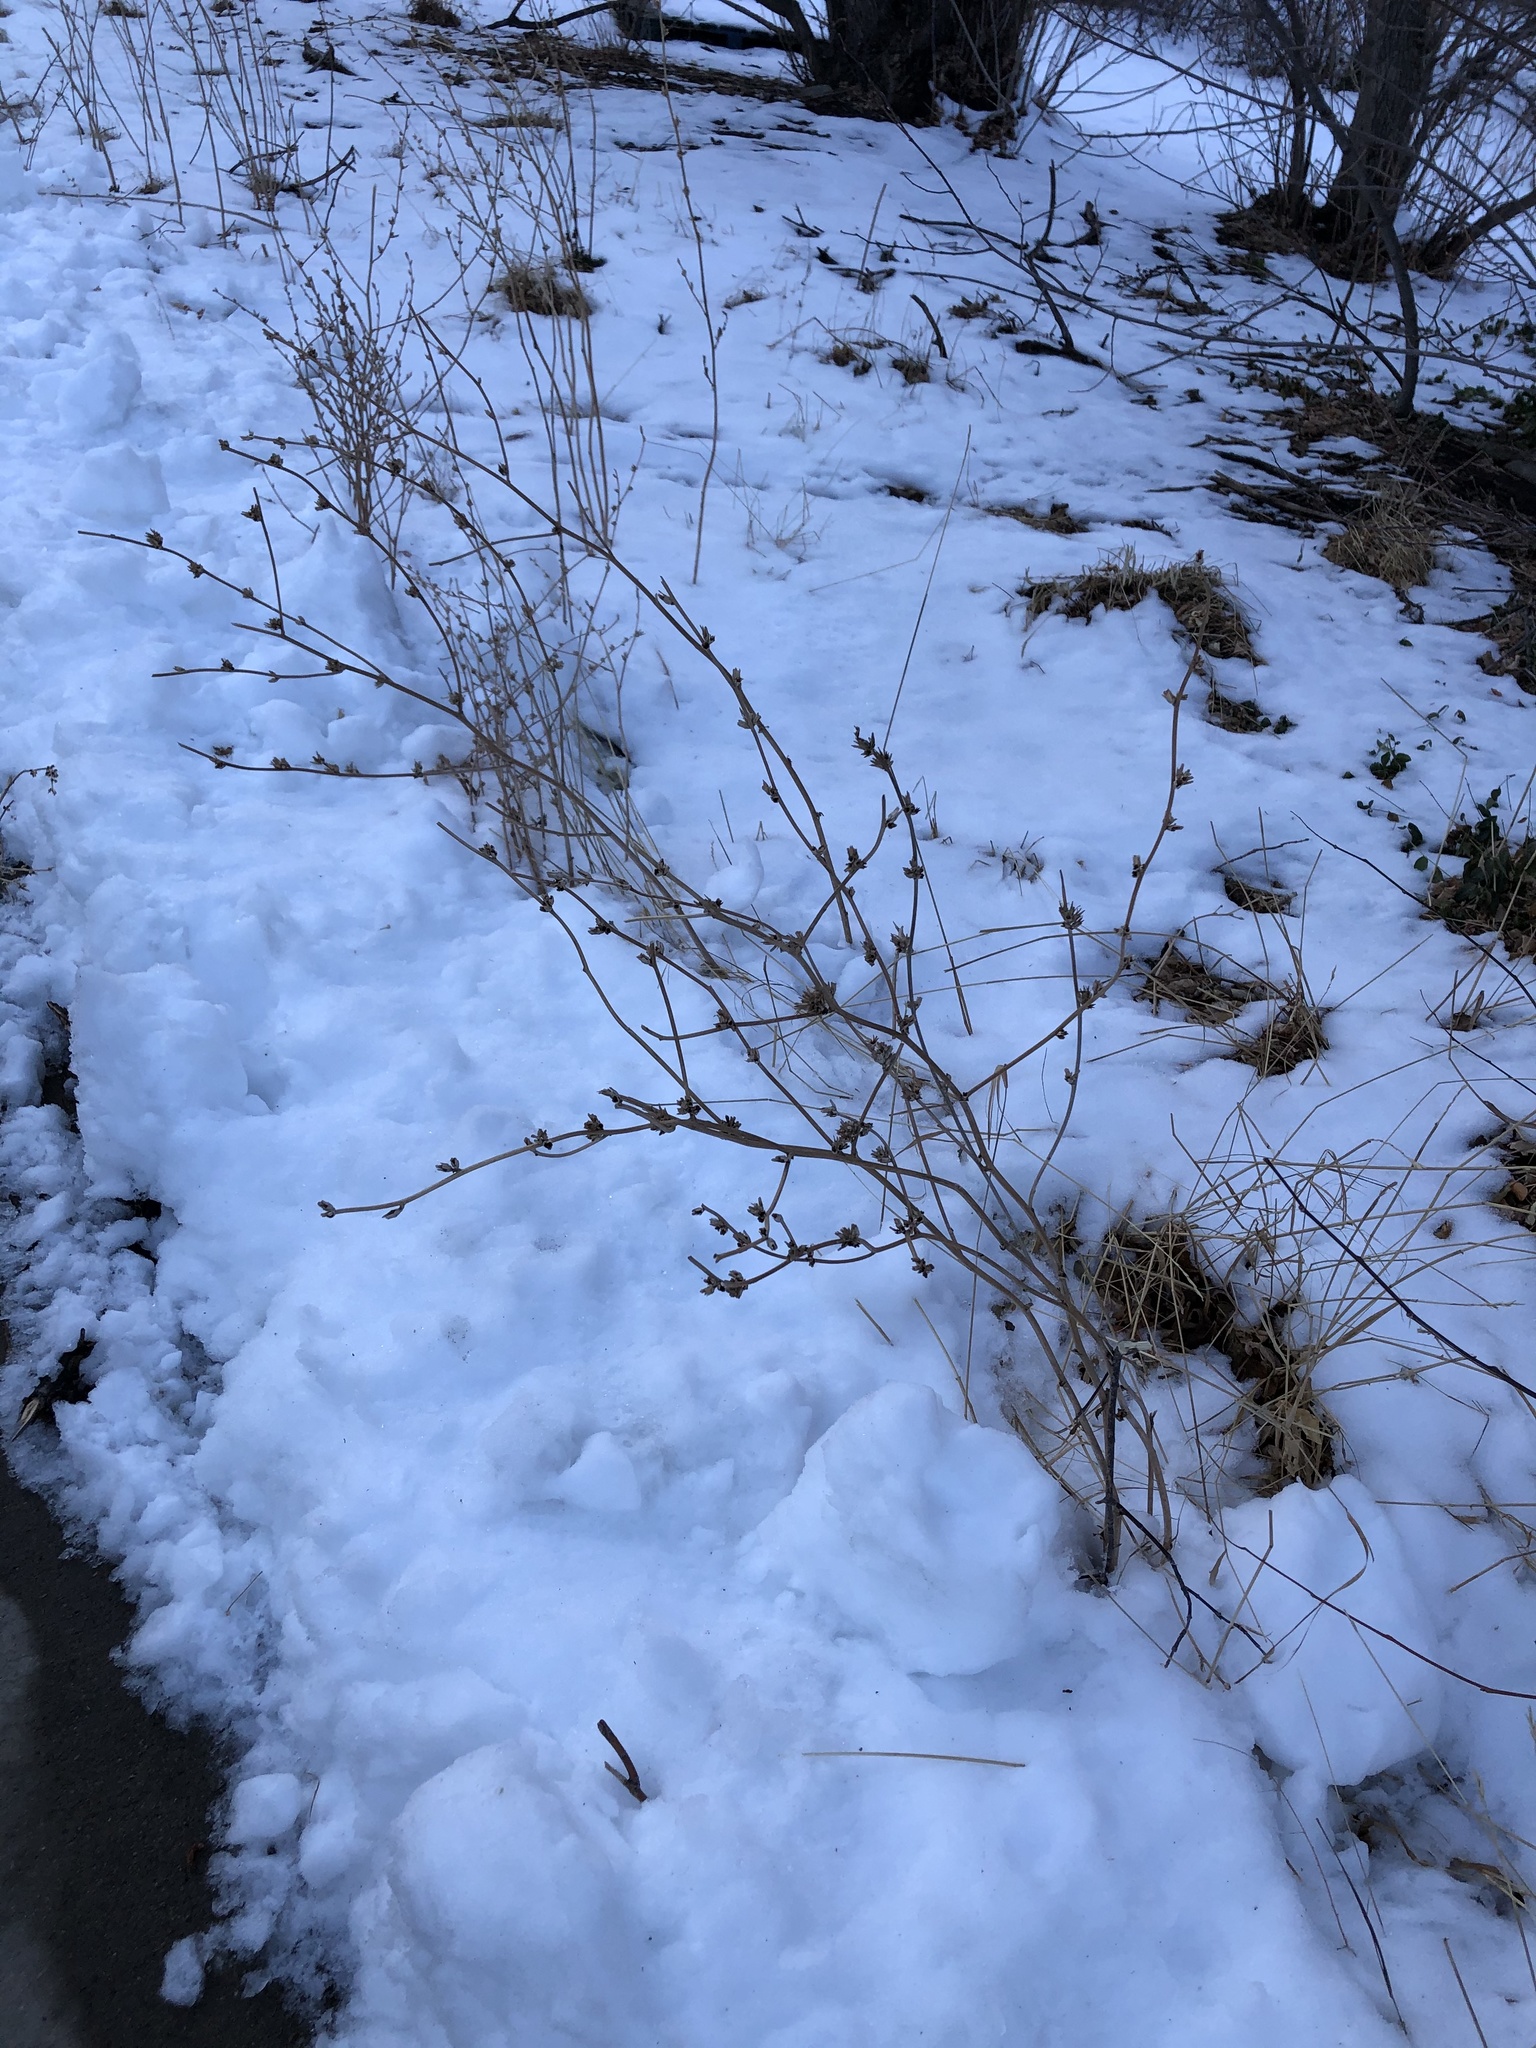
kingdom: Plantae
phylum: Tracheophyta
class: Magnoliopsida
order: Asterales
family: Asteraceae
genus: Cichorium
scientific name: Cichorium intybus
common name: Chicory
